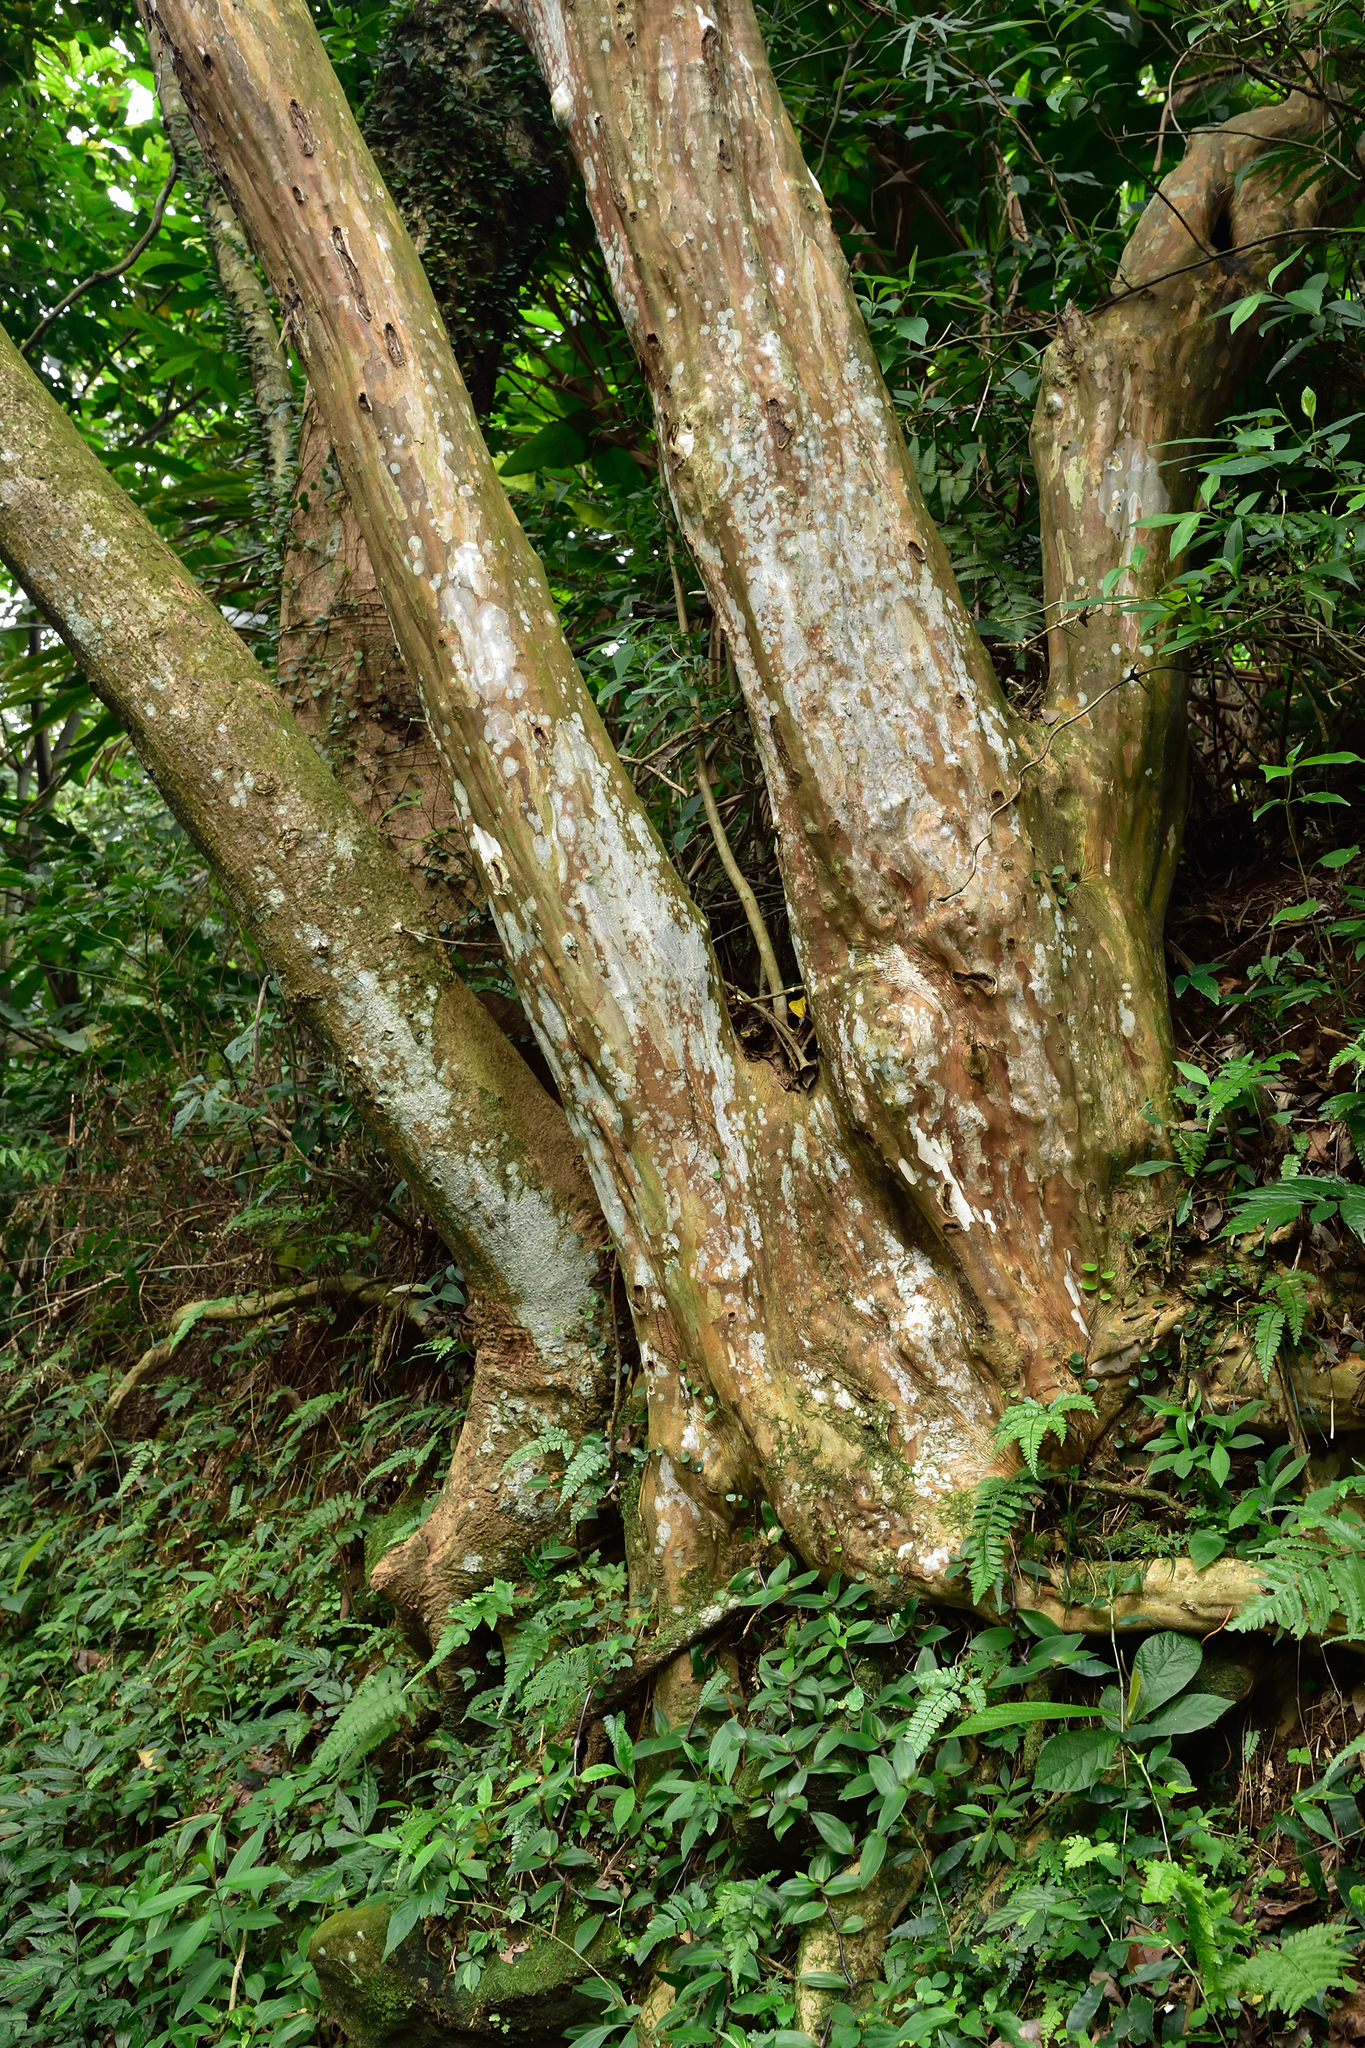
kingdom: Plantae
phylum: Tracheophyta
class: Magnoliopsida
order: Myrtales
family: Lythraceae
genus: Lagerstroemia
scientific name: Lagerstroemia subcostata
